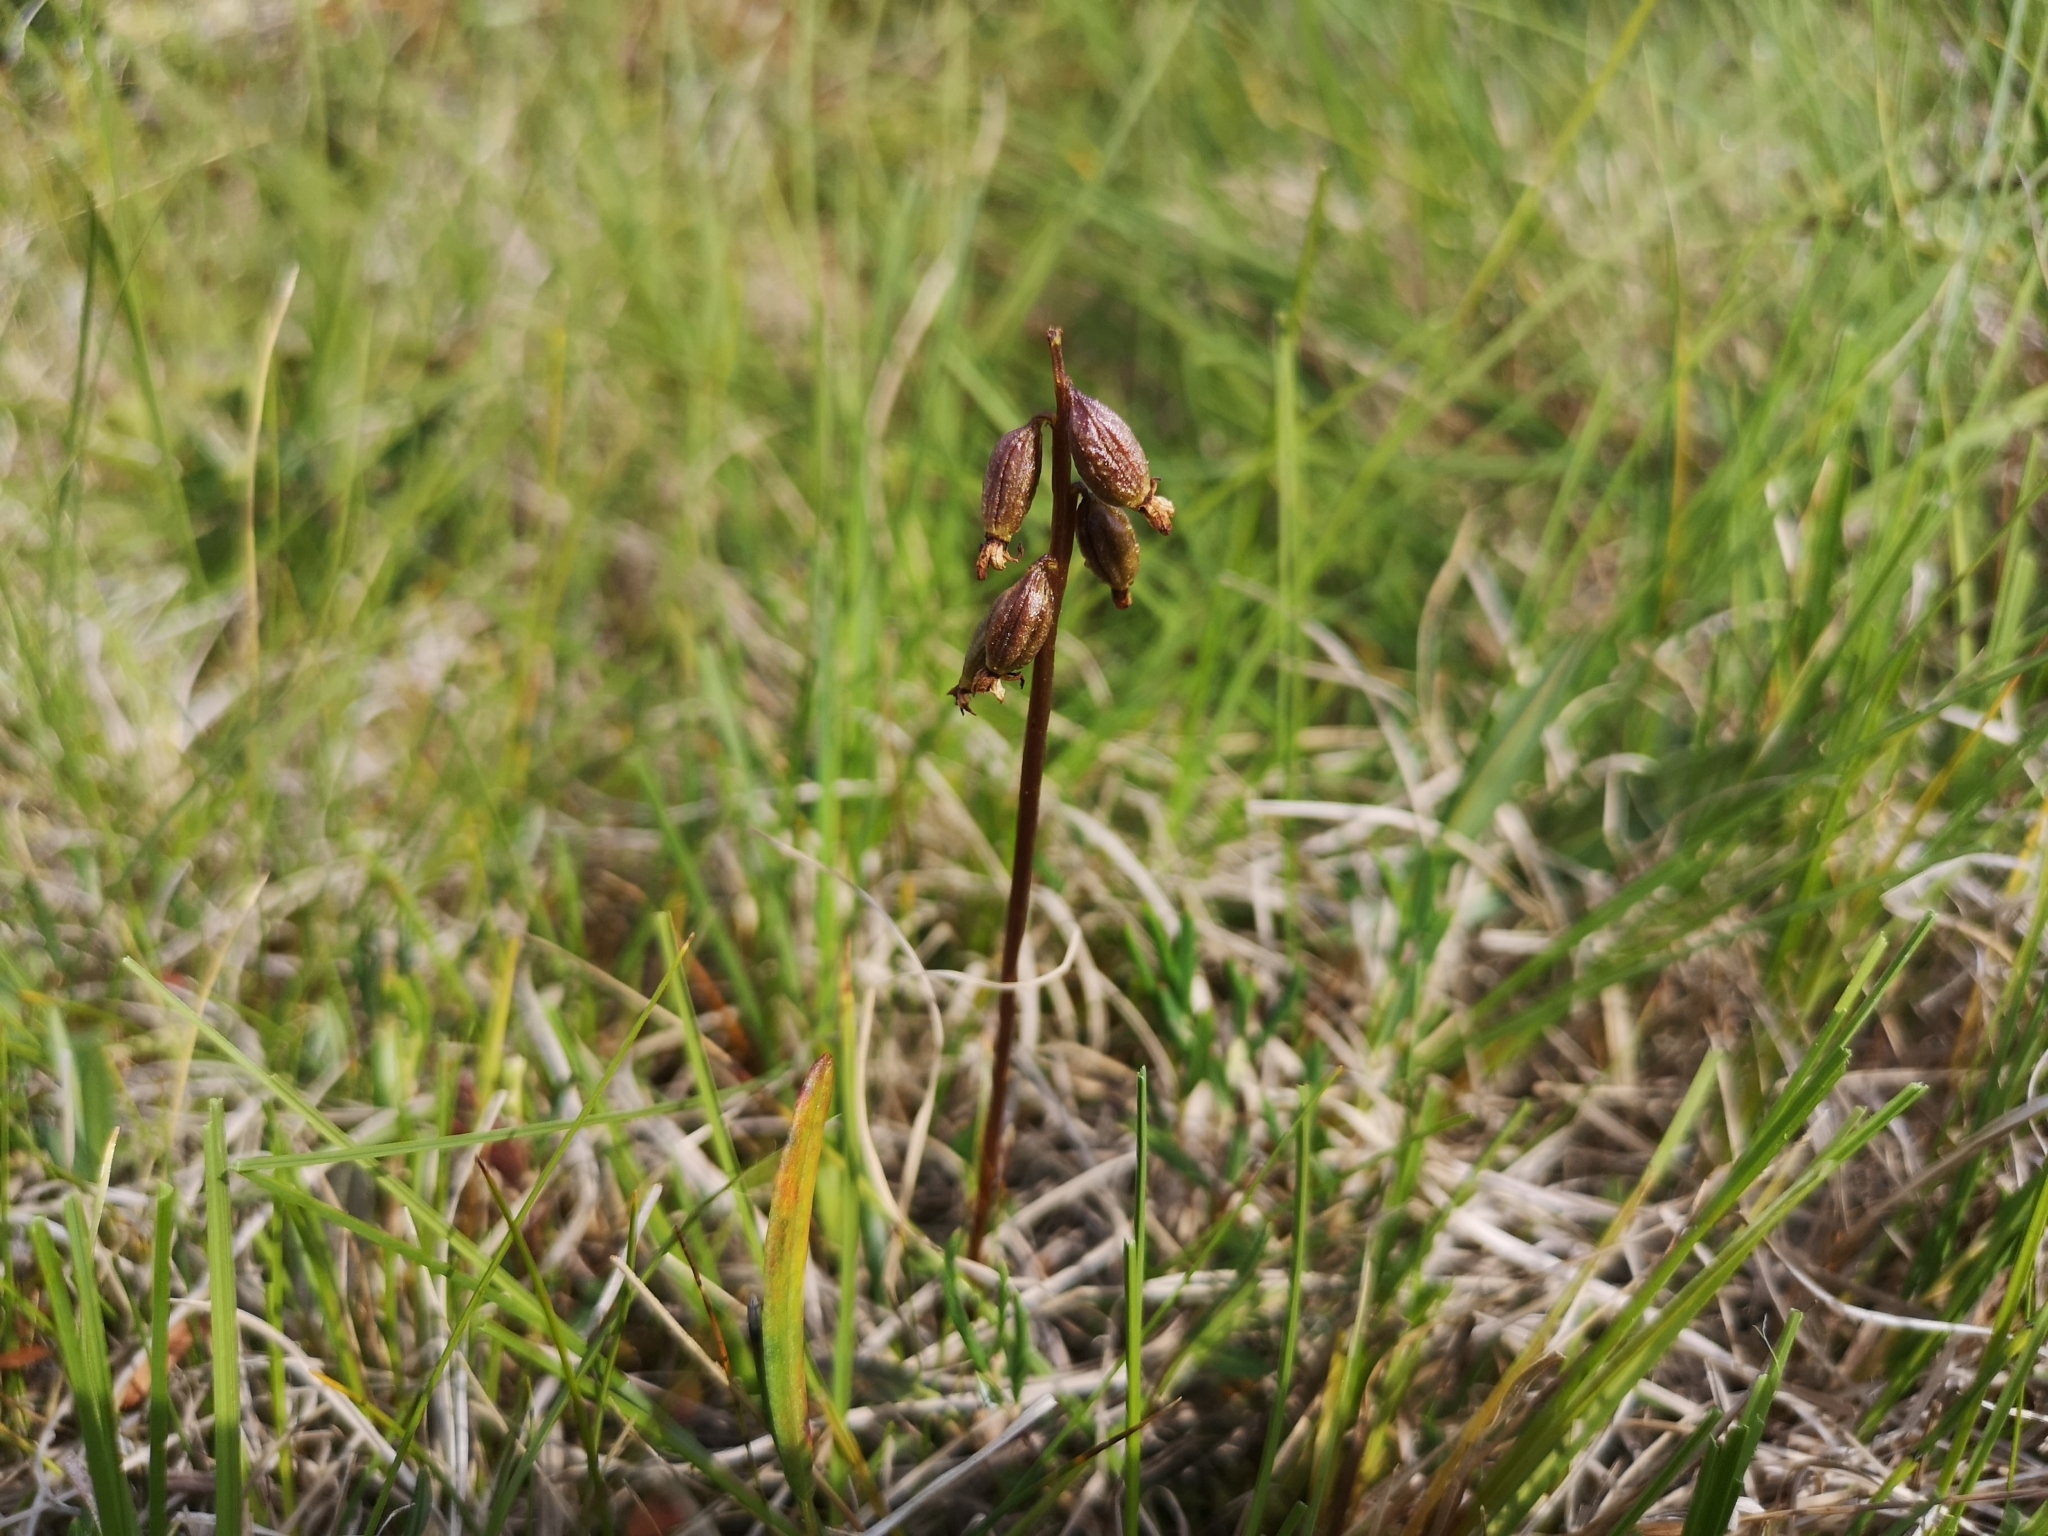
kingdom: Plantae
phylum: Tracheophyta
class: Liliopsida
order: Asparagales
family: Orchidaceae
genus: Corallorhiza
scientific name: Corallorhiza trifida
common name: Yellow coralroot
